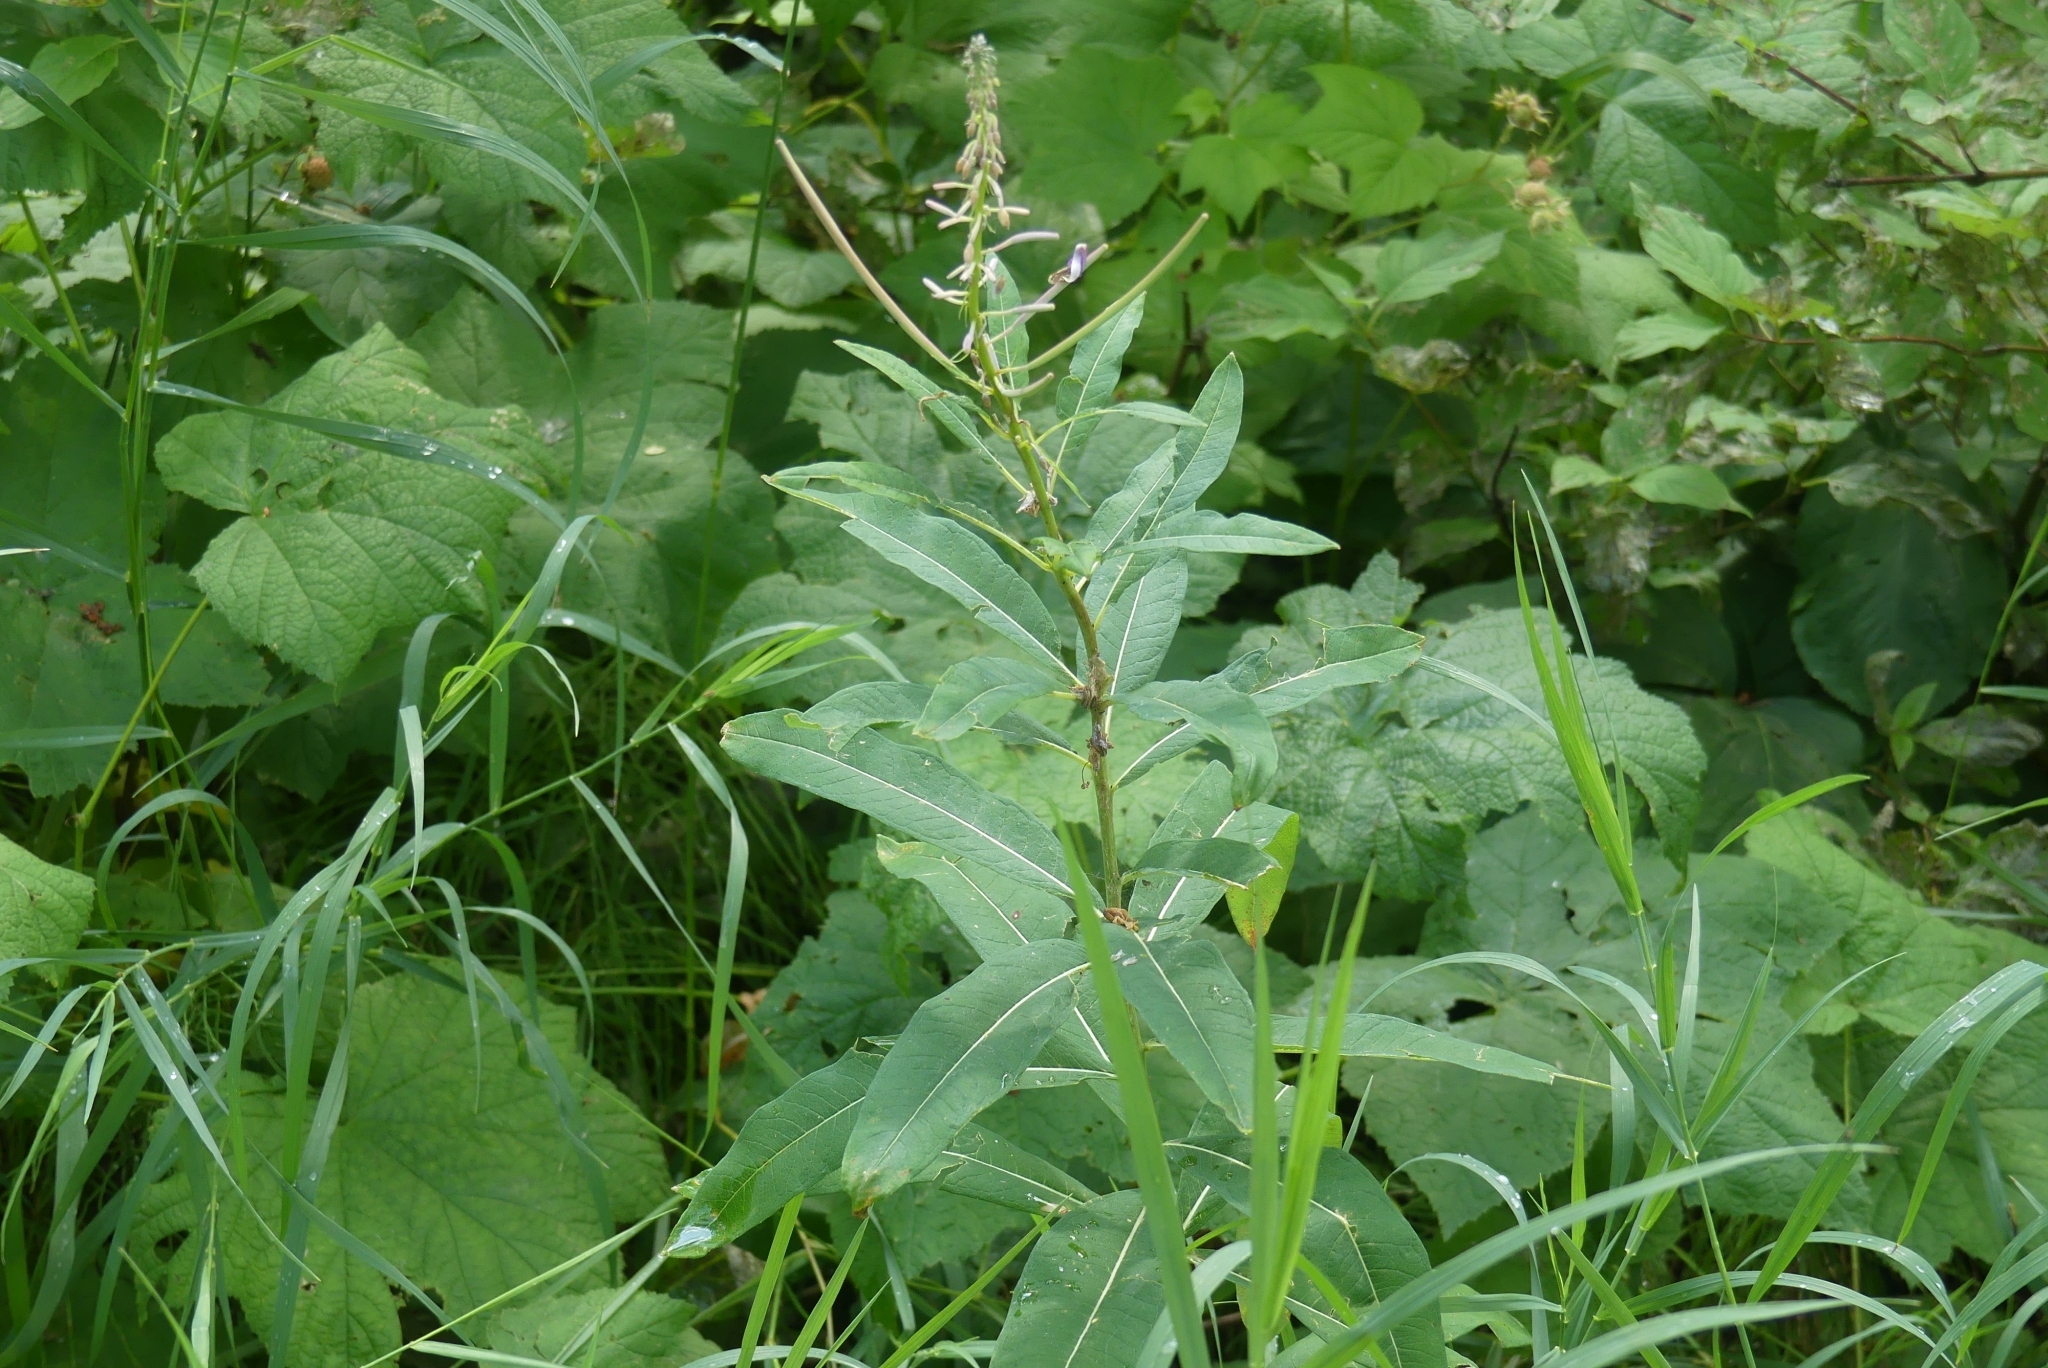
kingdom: Plantae
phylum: Tracheophyta
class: Magnoliopsida
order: Myrtales
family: Onagraceae
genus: Chamaenerion
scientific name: Chamaenerion angustifolium
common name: Fireweed
